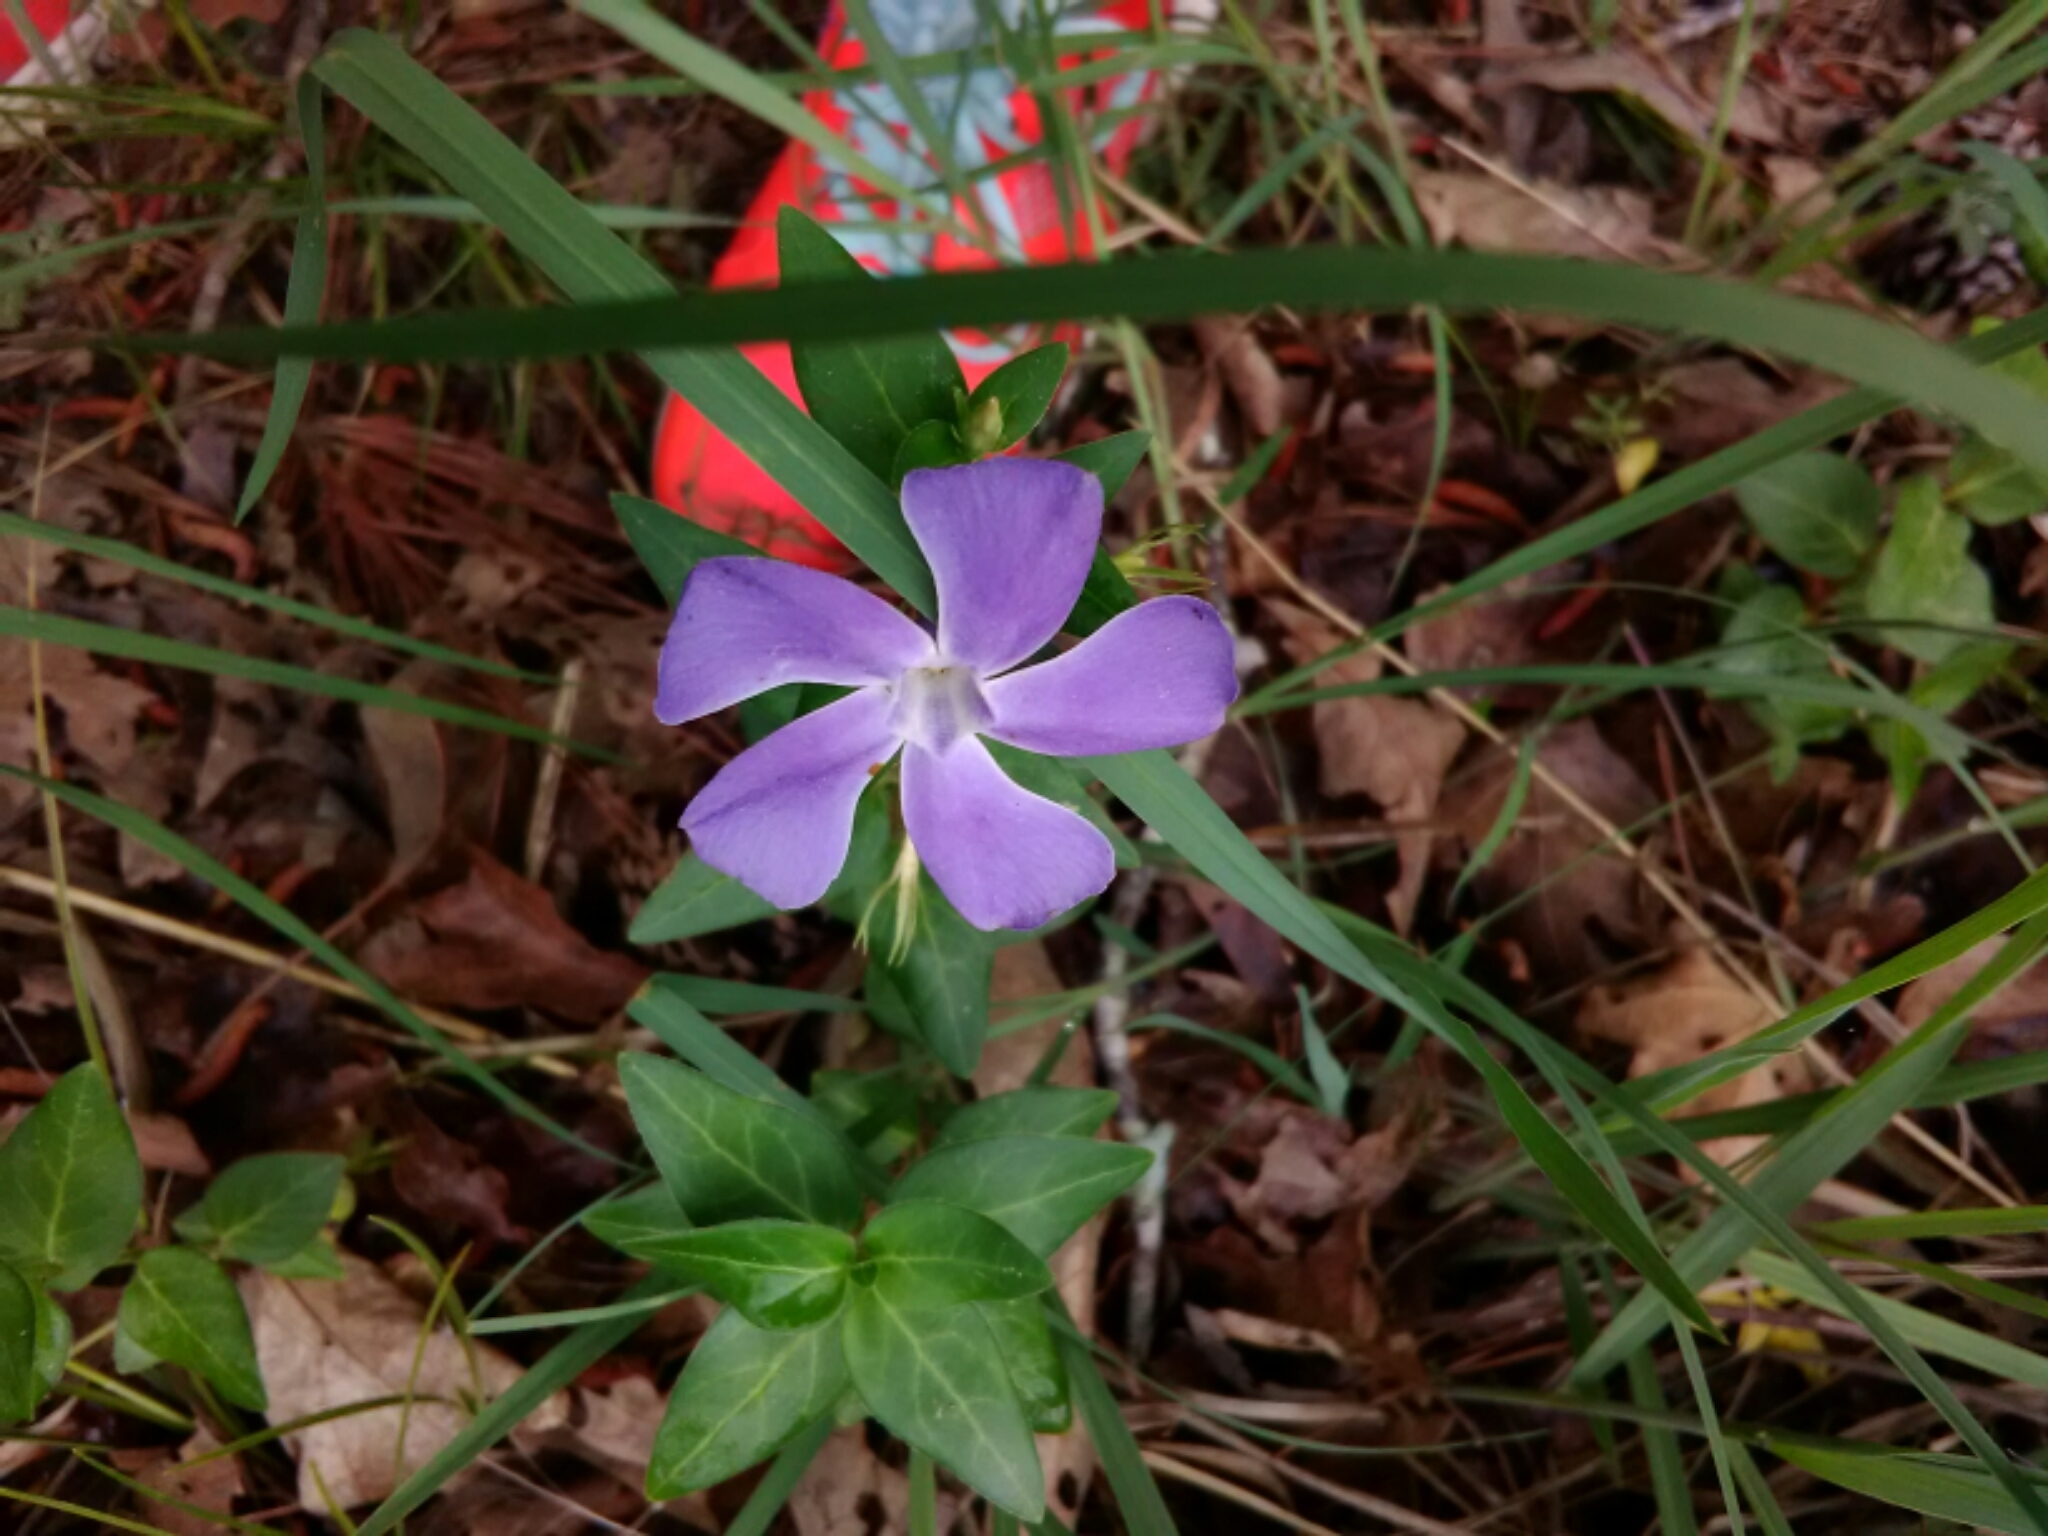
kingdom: Plantae
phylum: Tracheophyta
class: Magnoliopsida
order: Gentianales
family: Apocynaceae
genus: Vinca
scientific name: Vinca major
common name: Greater periwinkle
